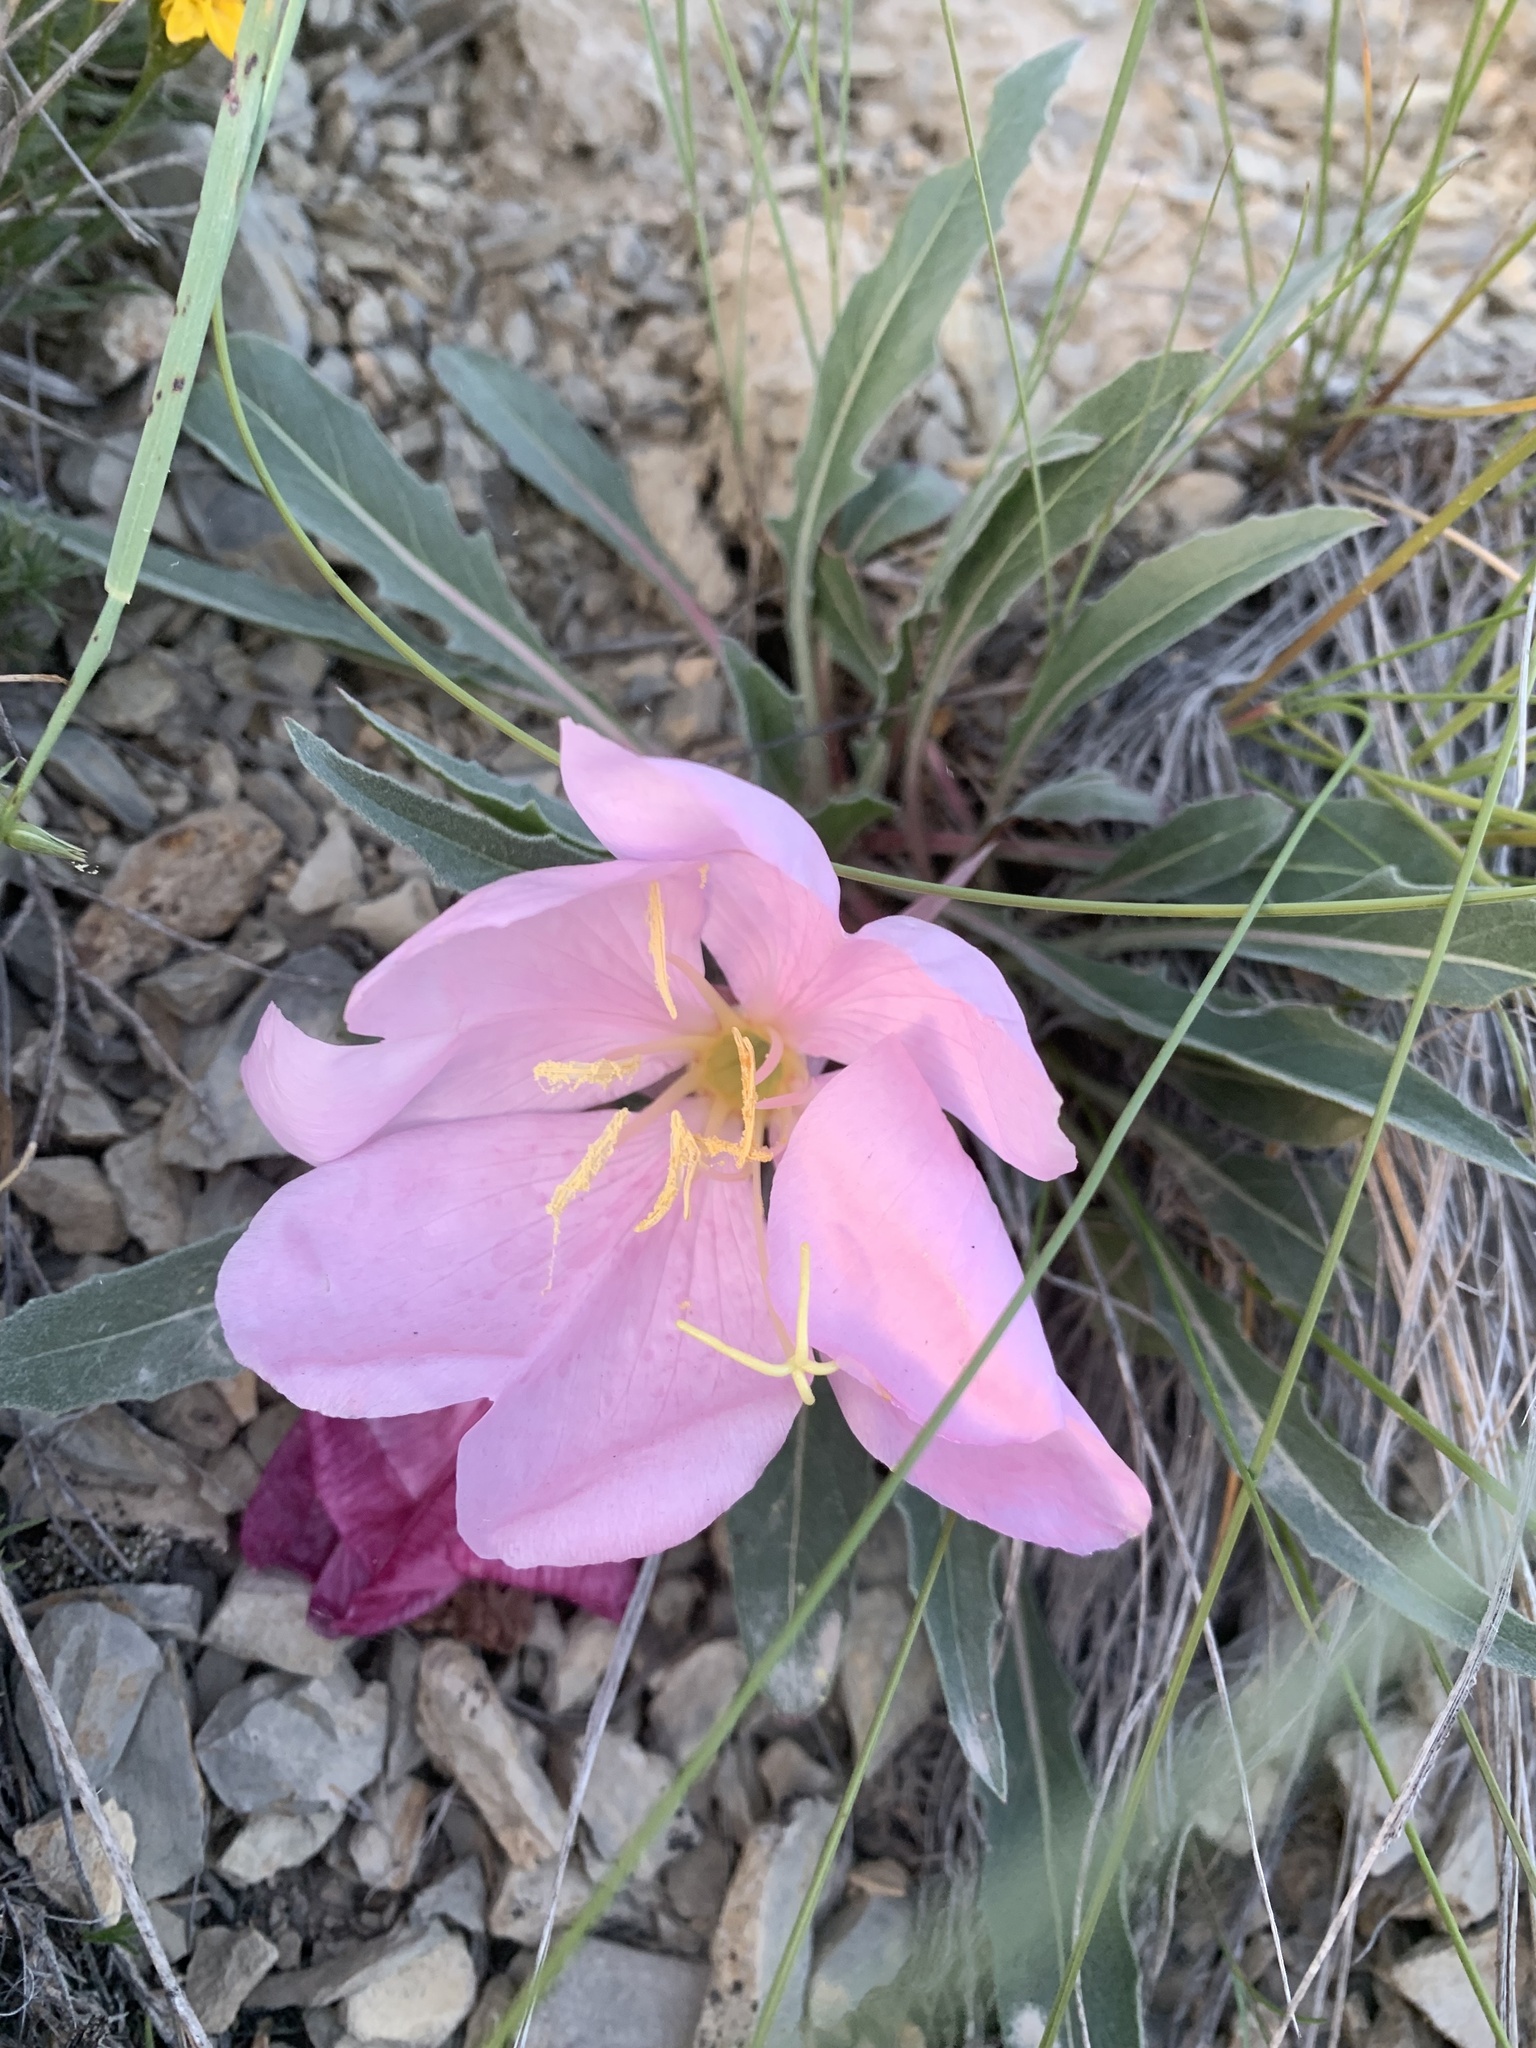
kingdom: Plantae
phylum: Tracheophyta
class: Magnoliopsida
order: Myrtales
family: Onagraceae
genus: Oenothera
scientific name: Oenothera cespitosa
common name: Tufted evening-primrose
